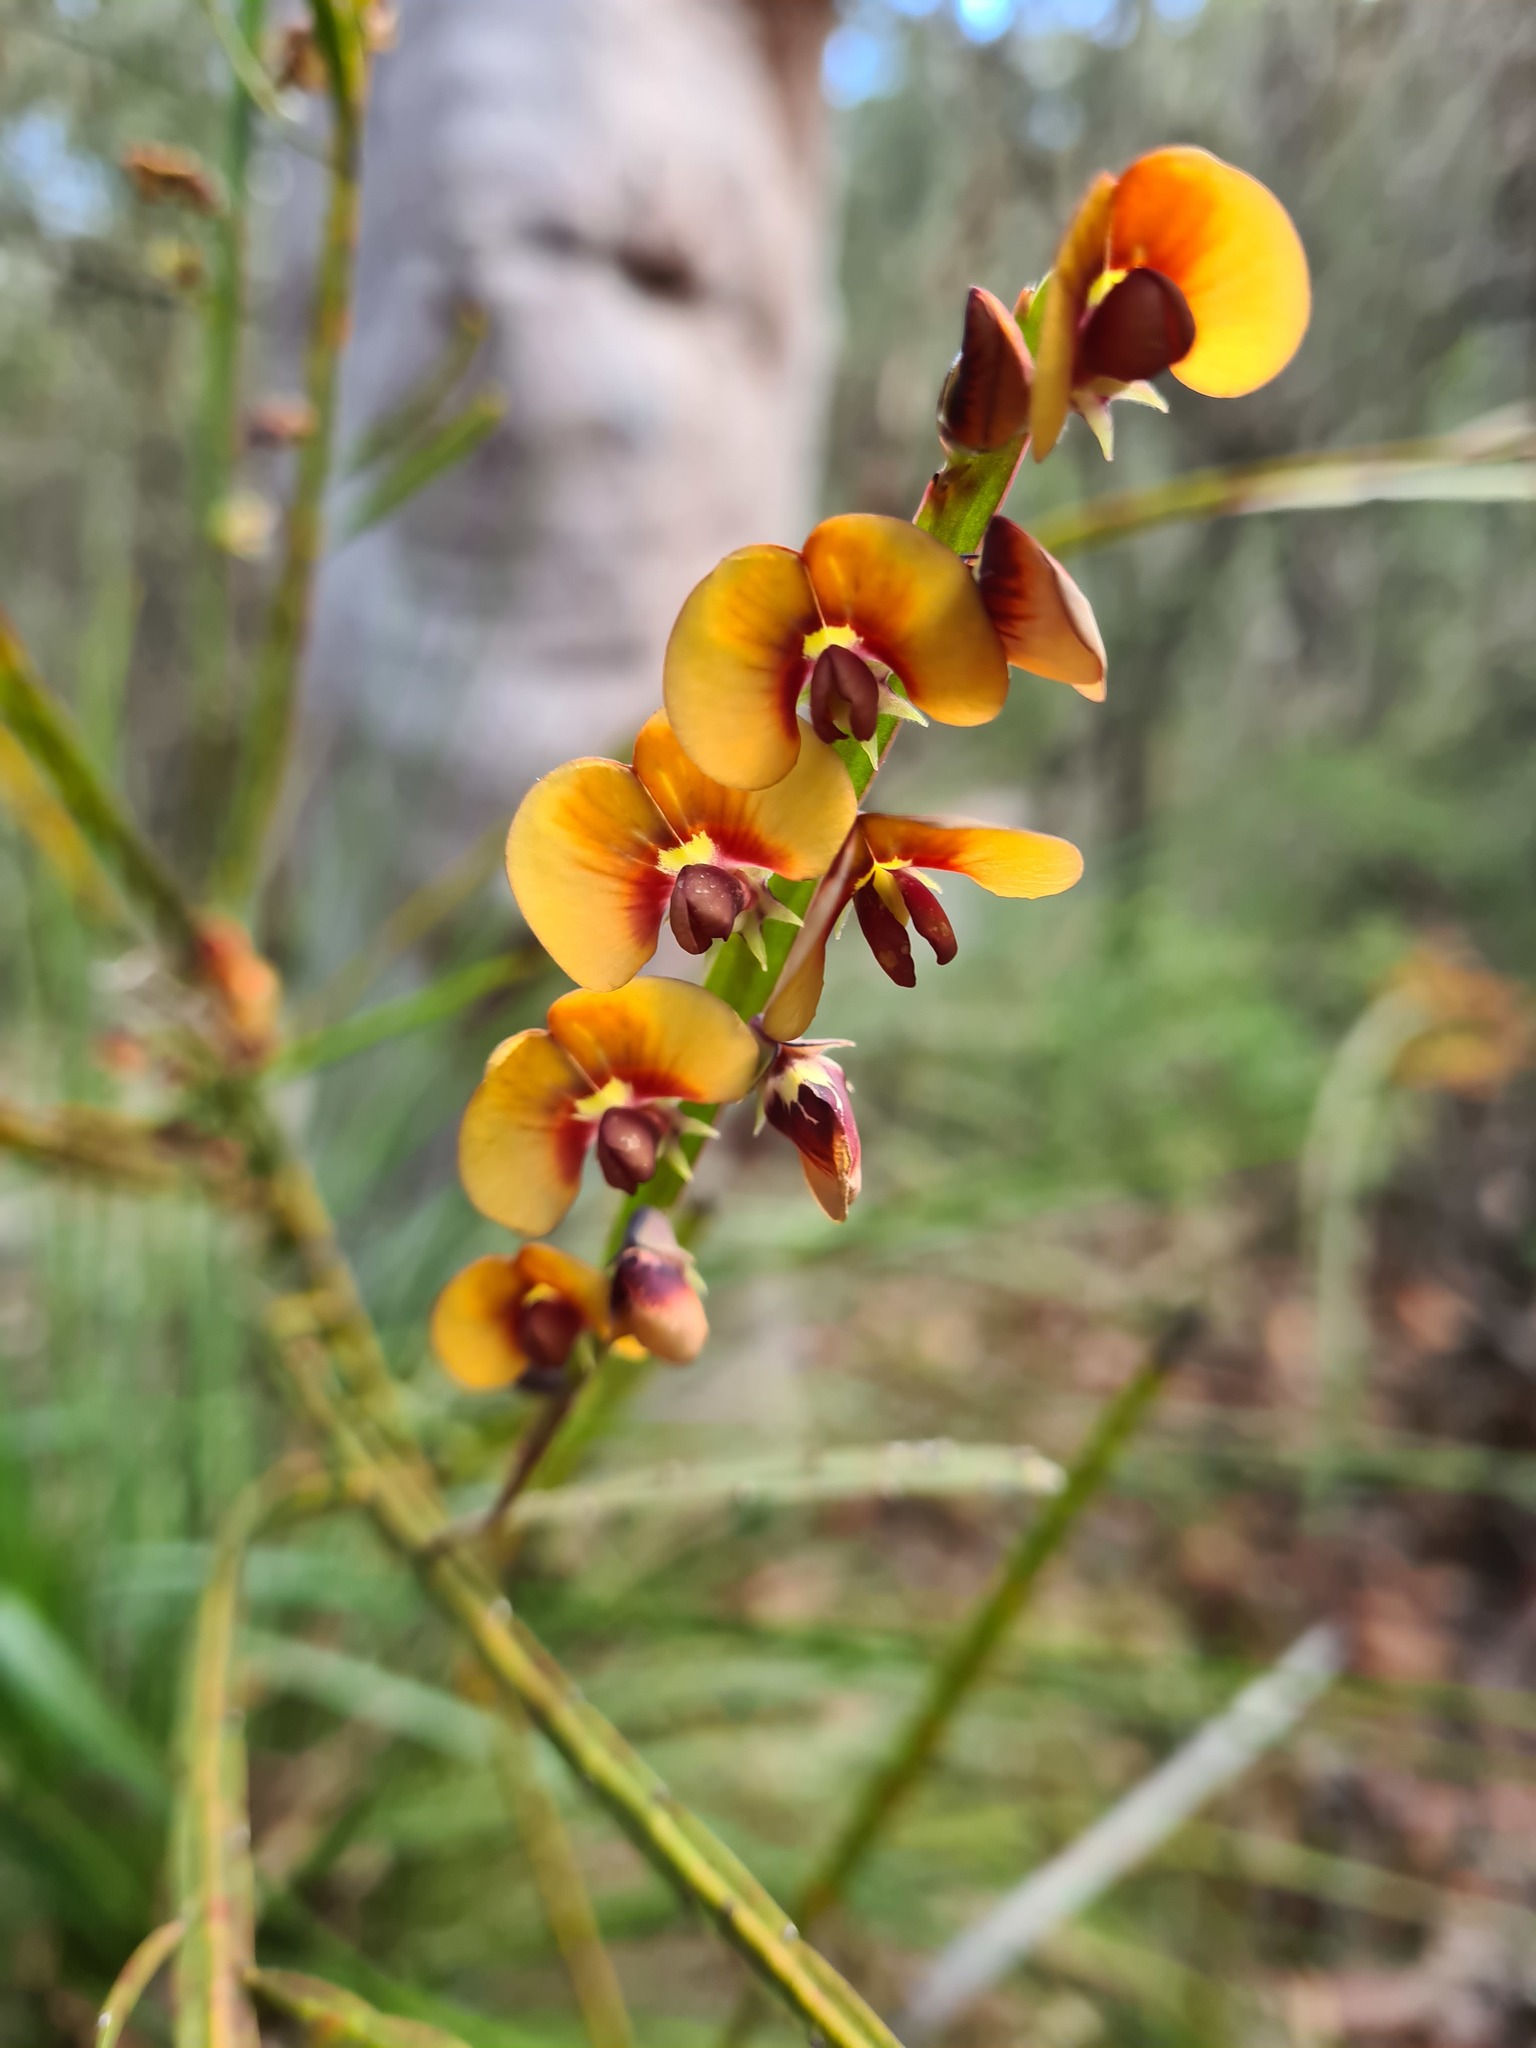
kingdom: Plantae
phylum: Tracheophyta
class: Magnoliopsida
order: Fabales
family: Fabaceae
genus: Bossiaea
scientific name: Bossiaea scolopendria
